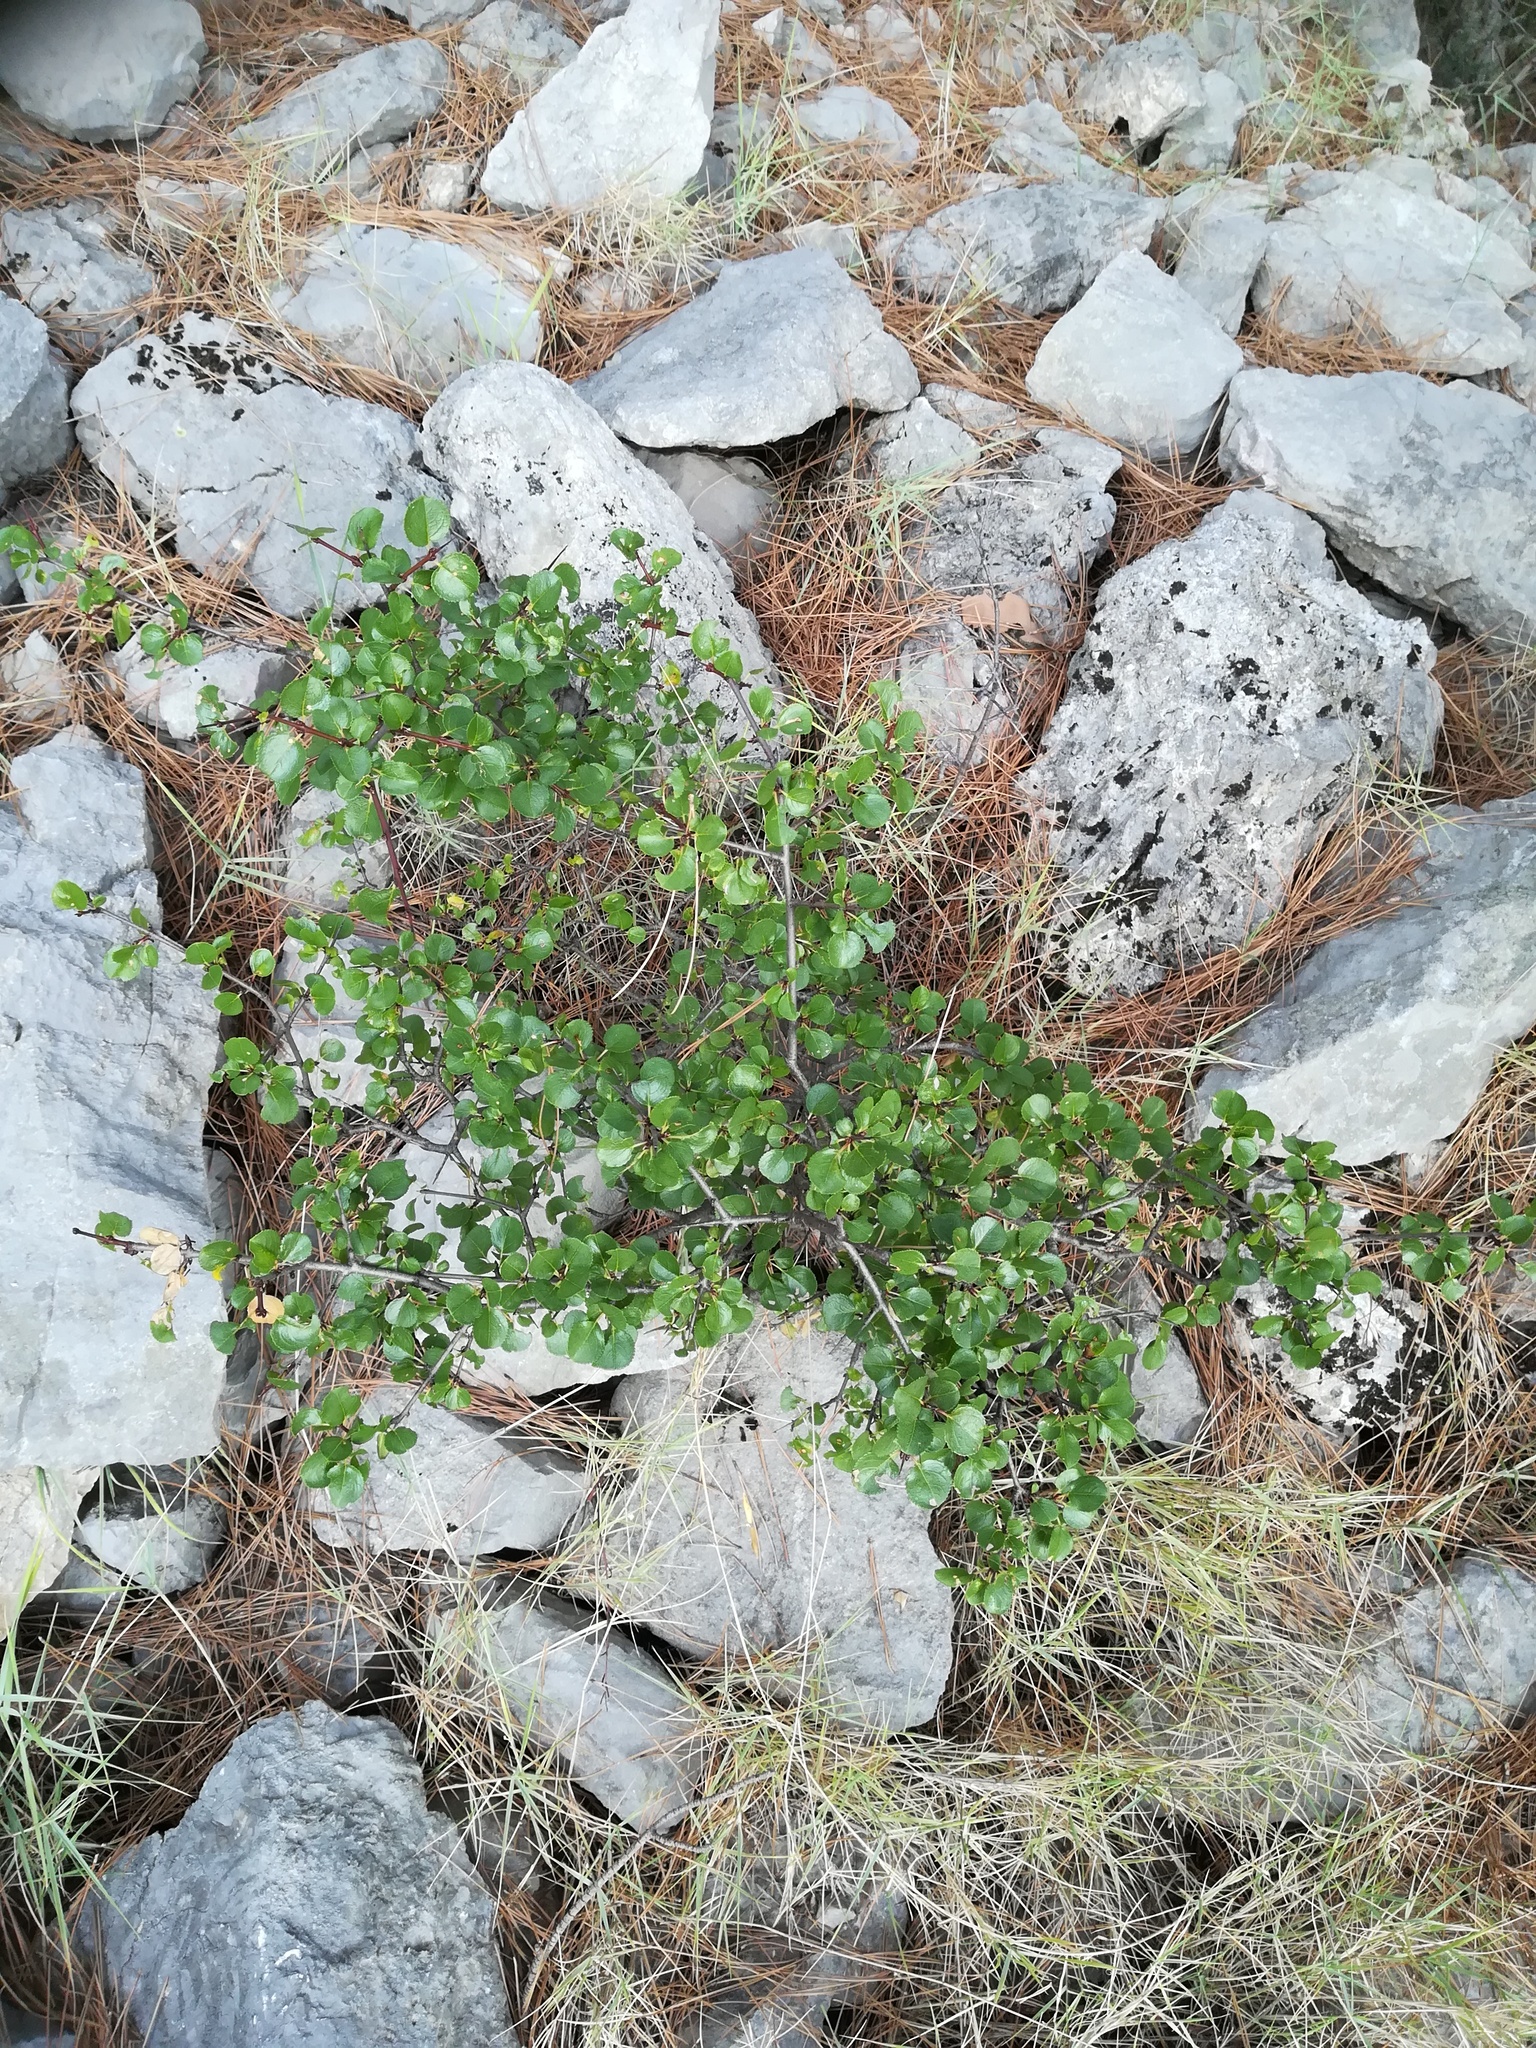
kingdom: Plantae
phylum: Tracheophyta
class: Magnoliopsida
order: Rosales
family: Rhamnaceae
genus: Rhamnus
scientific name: Rhamnus intermedia
